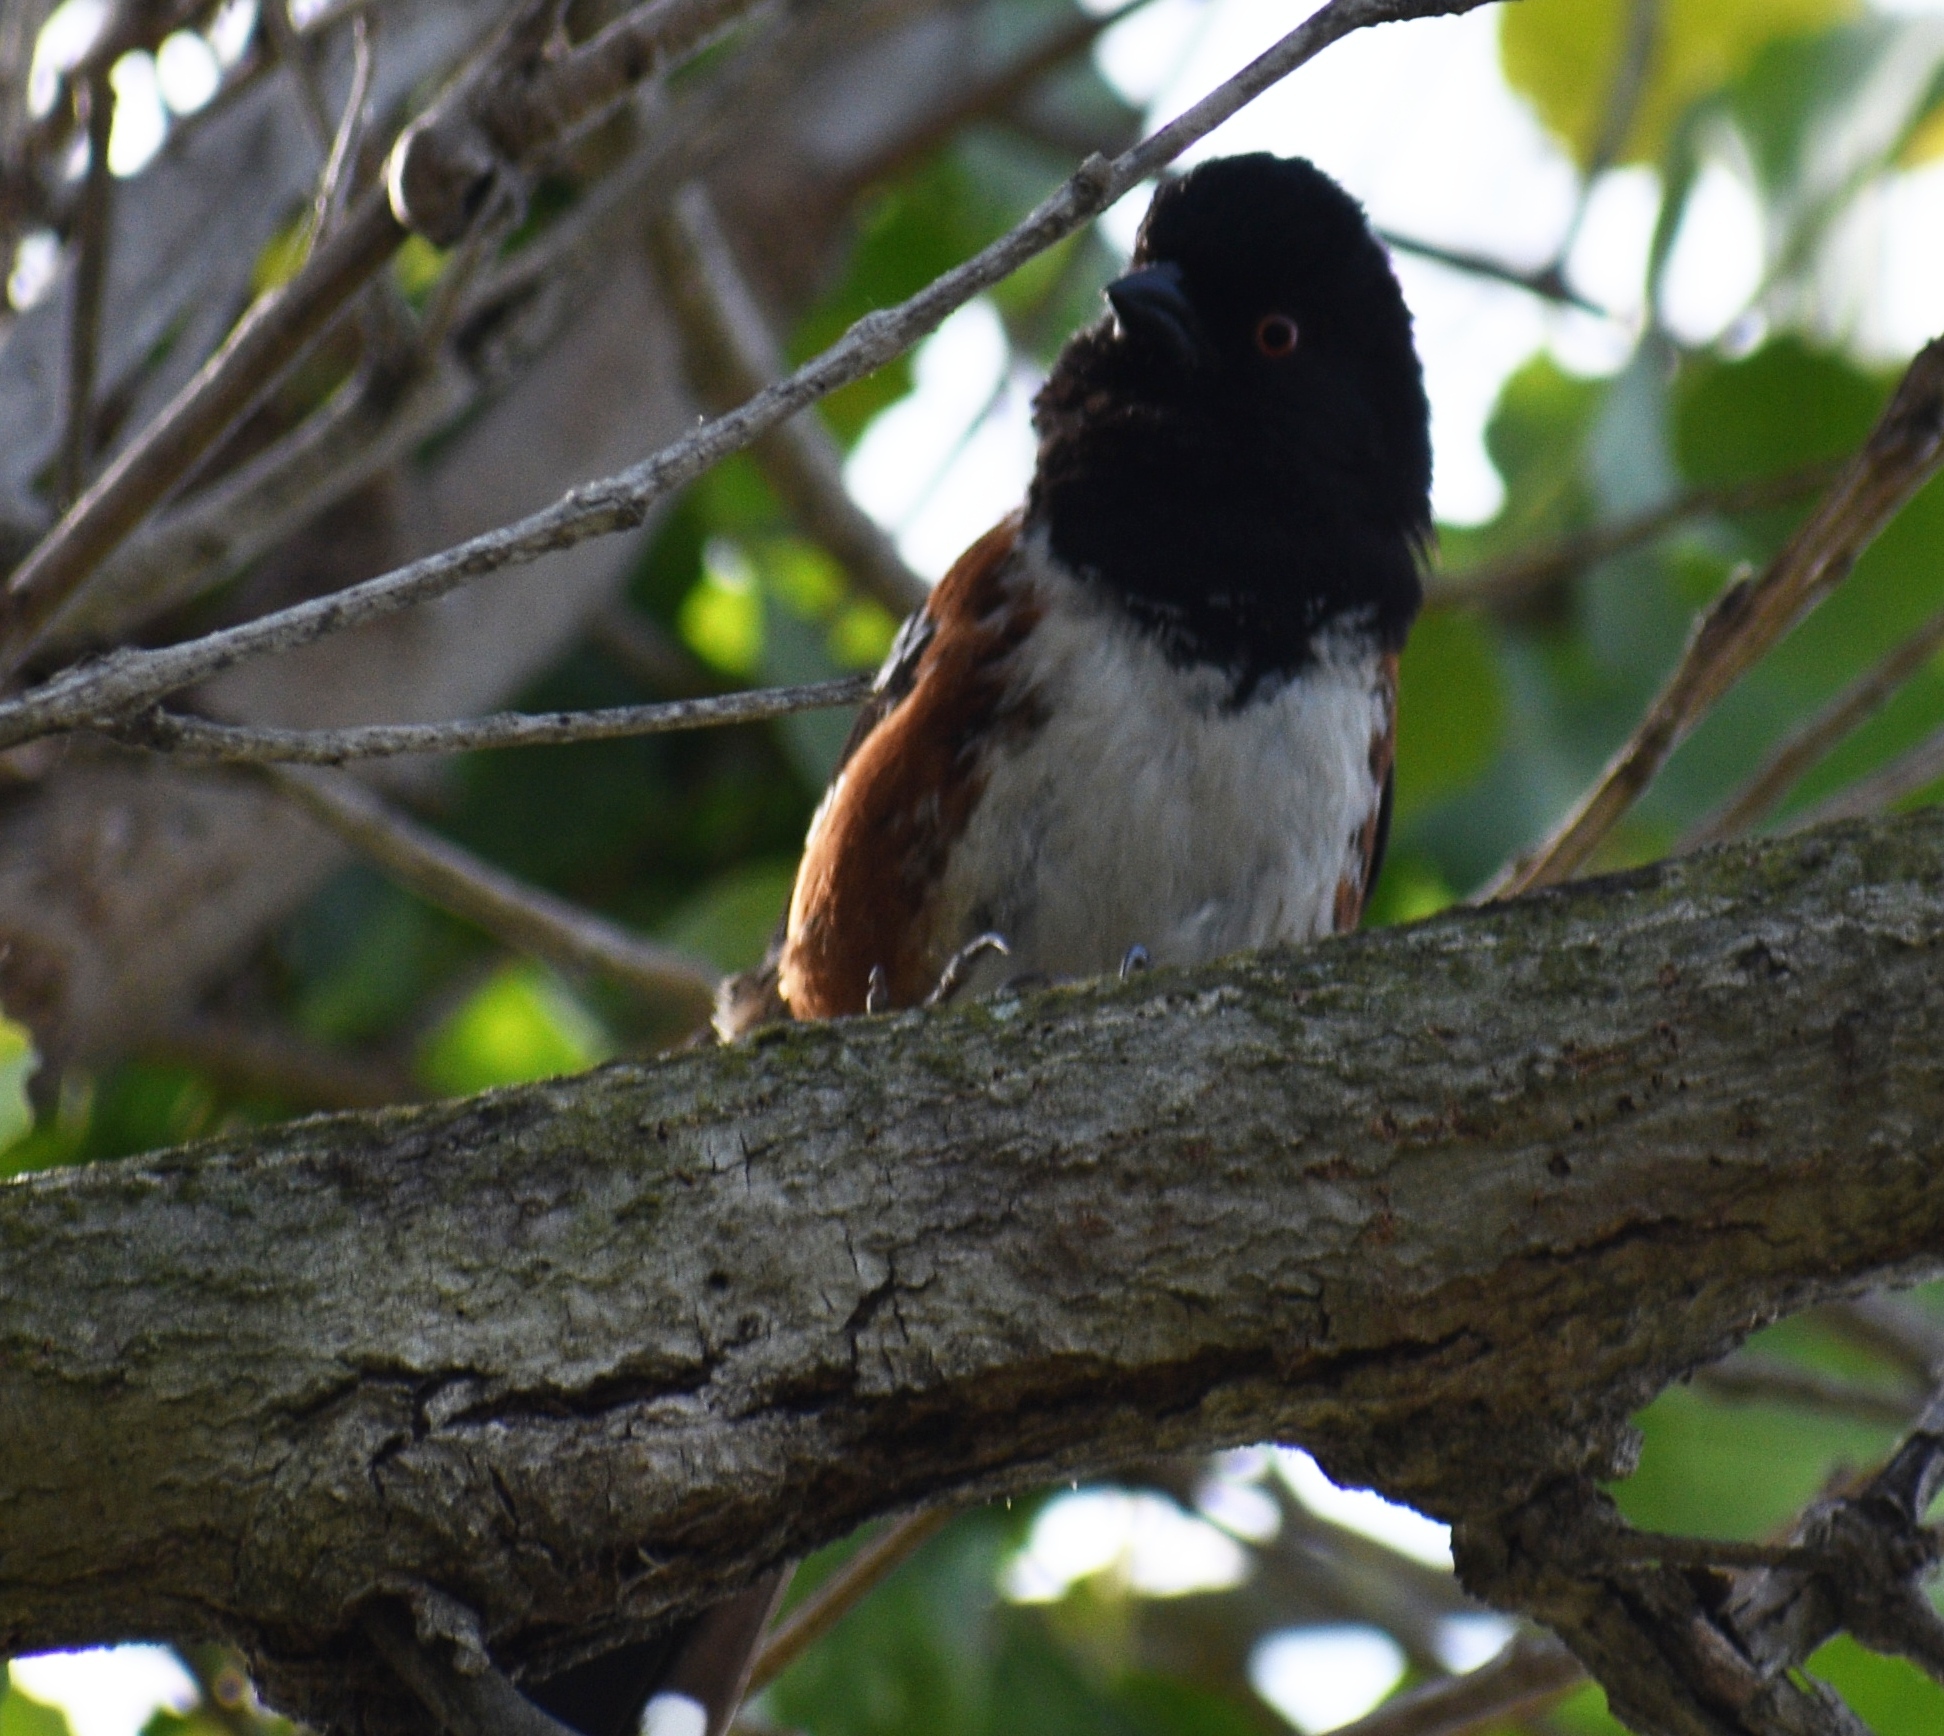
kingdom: Animalia
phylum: Chordata
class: Aves
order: Passeriformes
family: Passerellidae
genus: Pipilo
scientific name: Pipilo maculatus
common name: Spotted towhee
